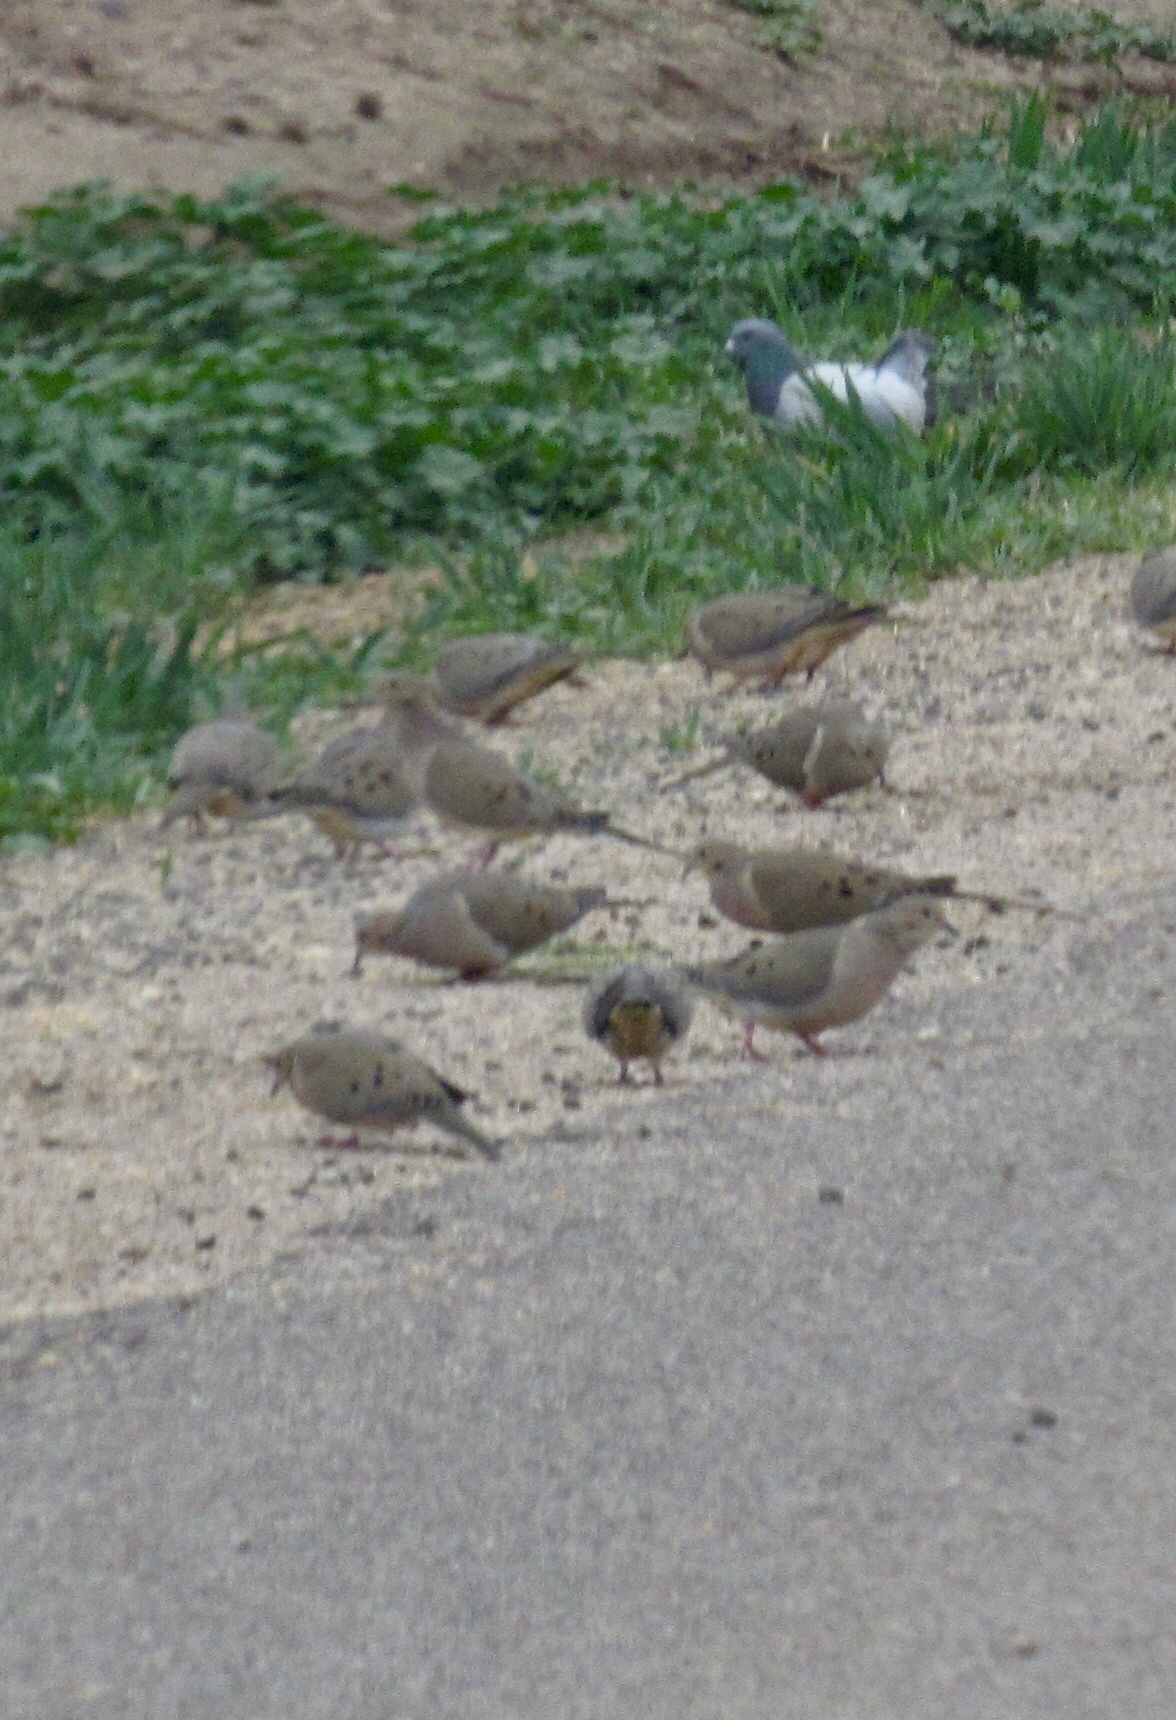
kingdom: Animalia
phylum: Chordata
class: Aves
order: Columbiformes
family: Columbidae
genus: Zenaida
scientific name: Zenaida macroura
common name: Mourning dove
